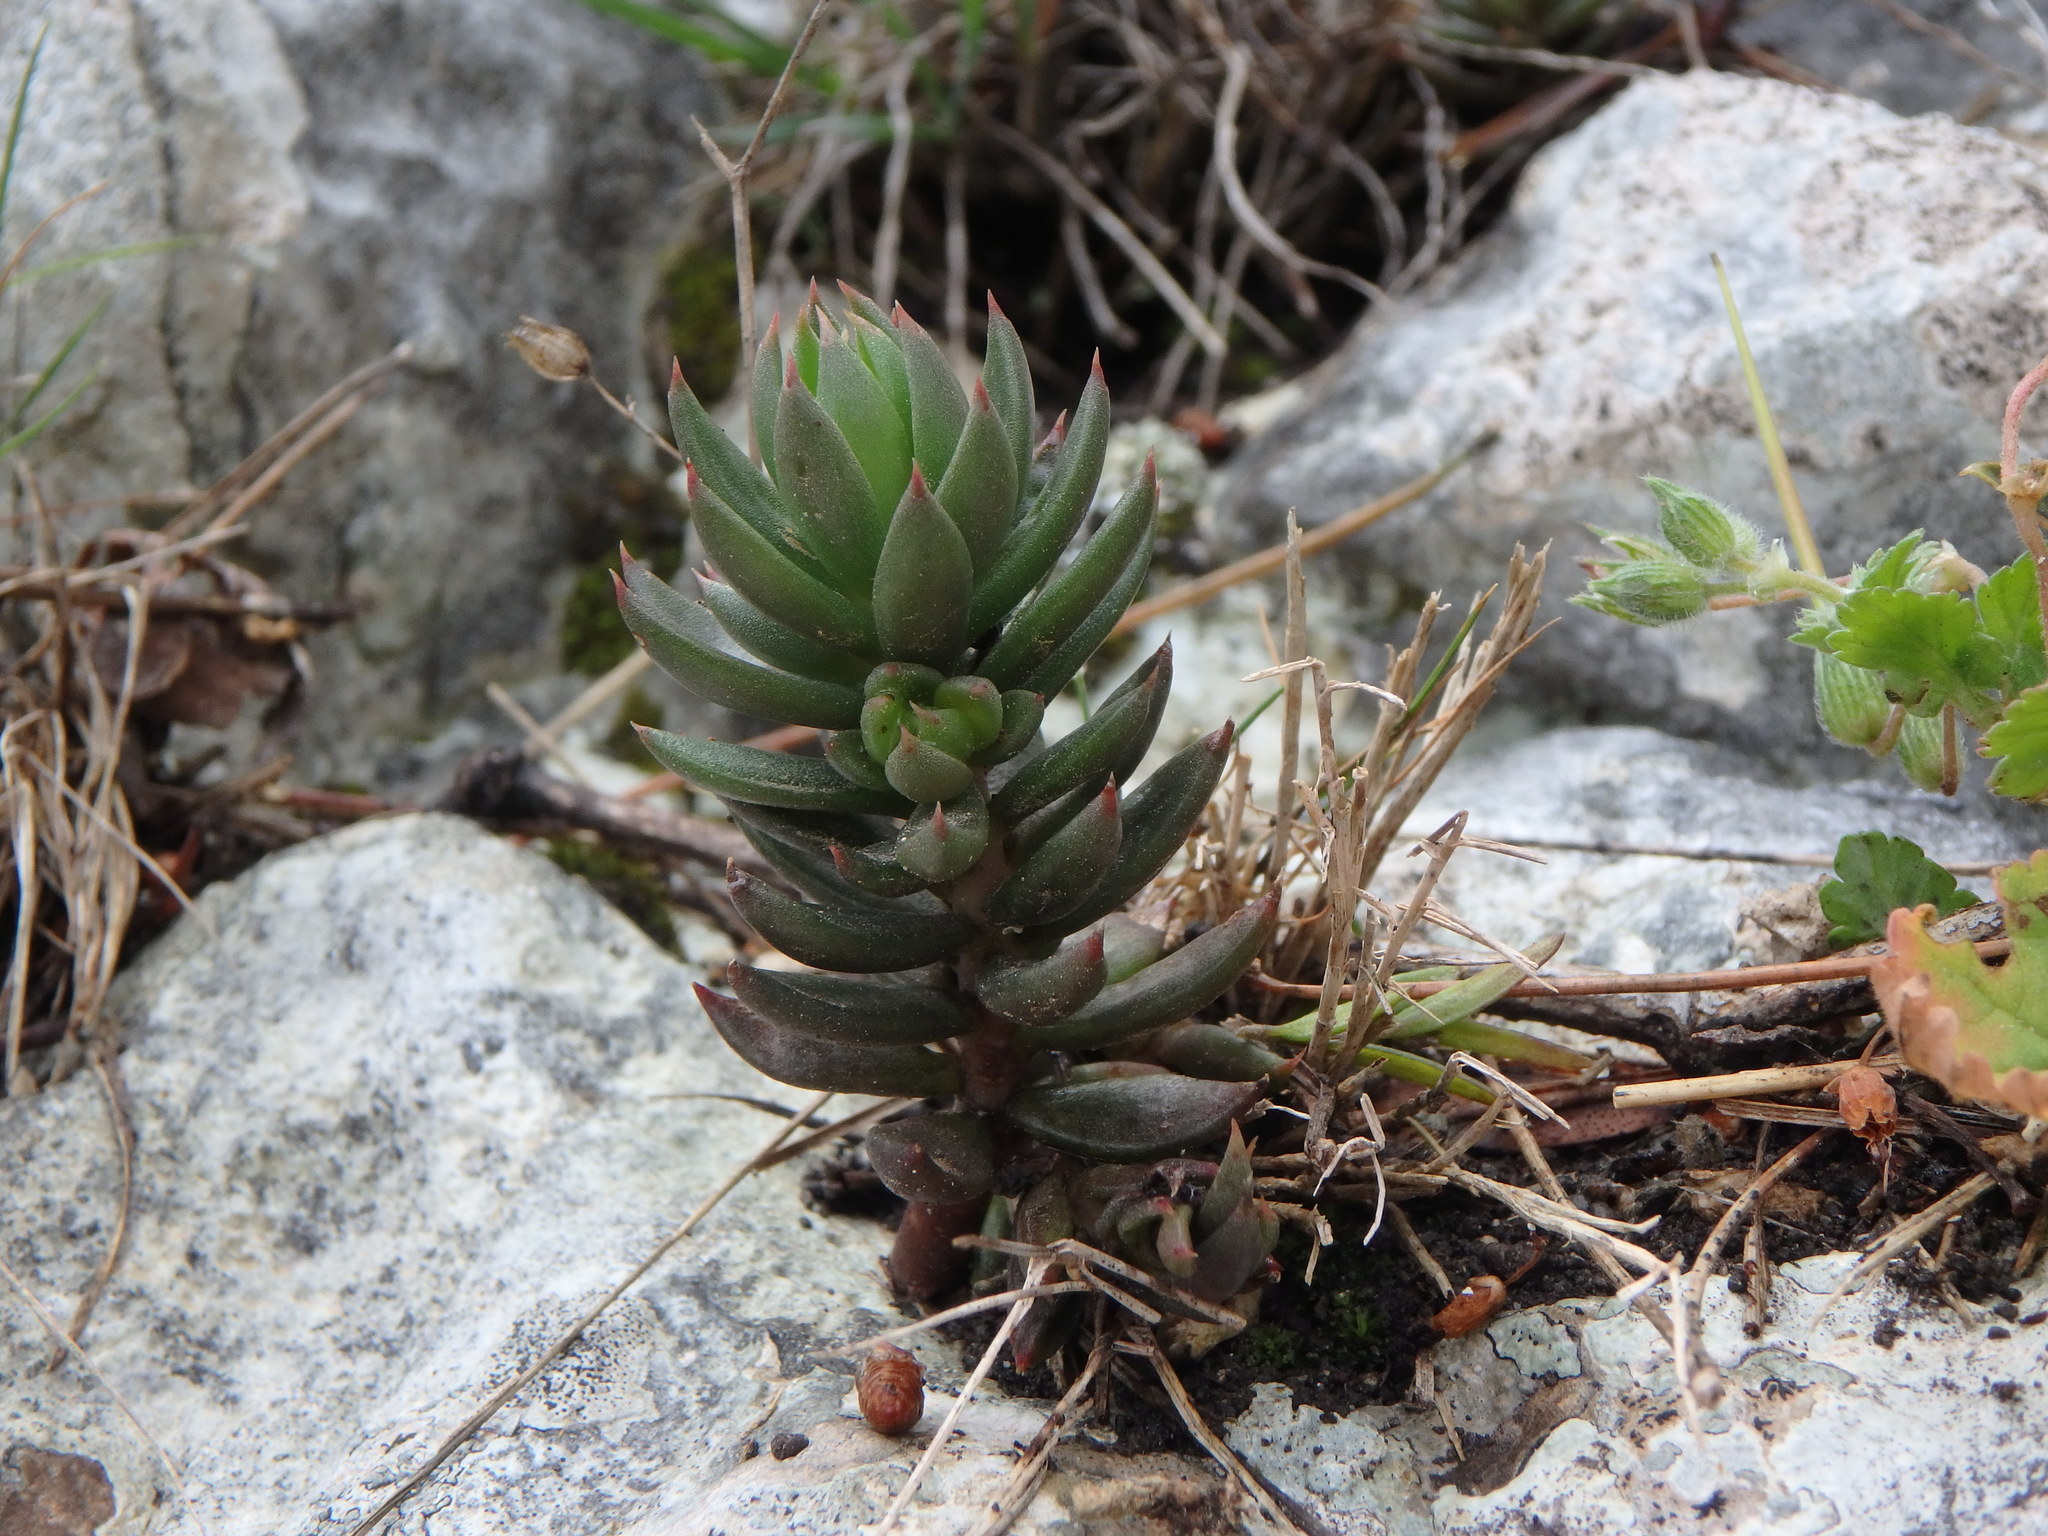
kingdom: Plantae
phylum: Tracheophyta
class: Magnoliopsida
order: Saxifragales
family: Crassulaceae
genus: Petrosedum
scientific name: Petrosedum sediforme
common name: Pale stonecrop
